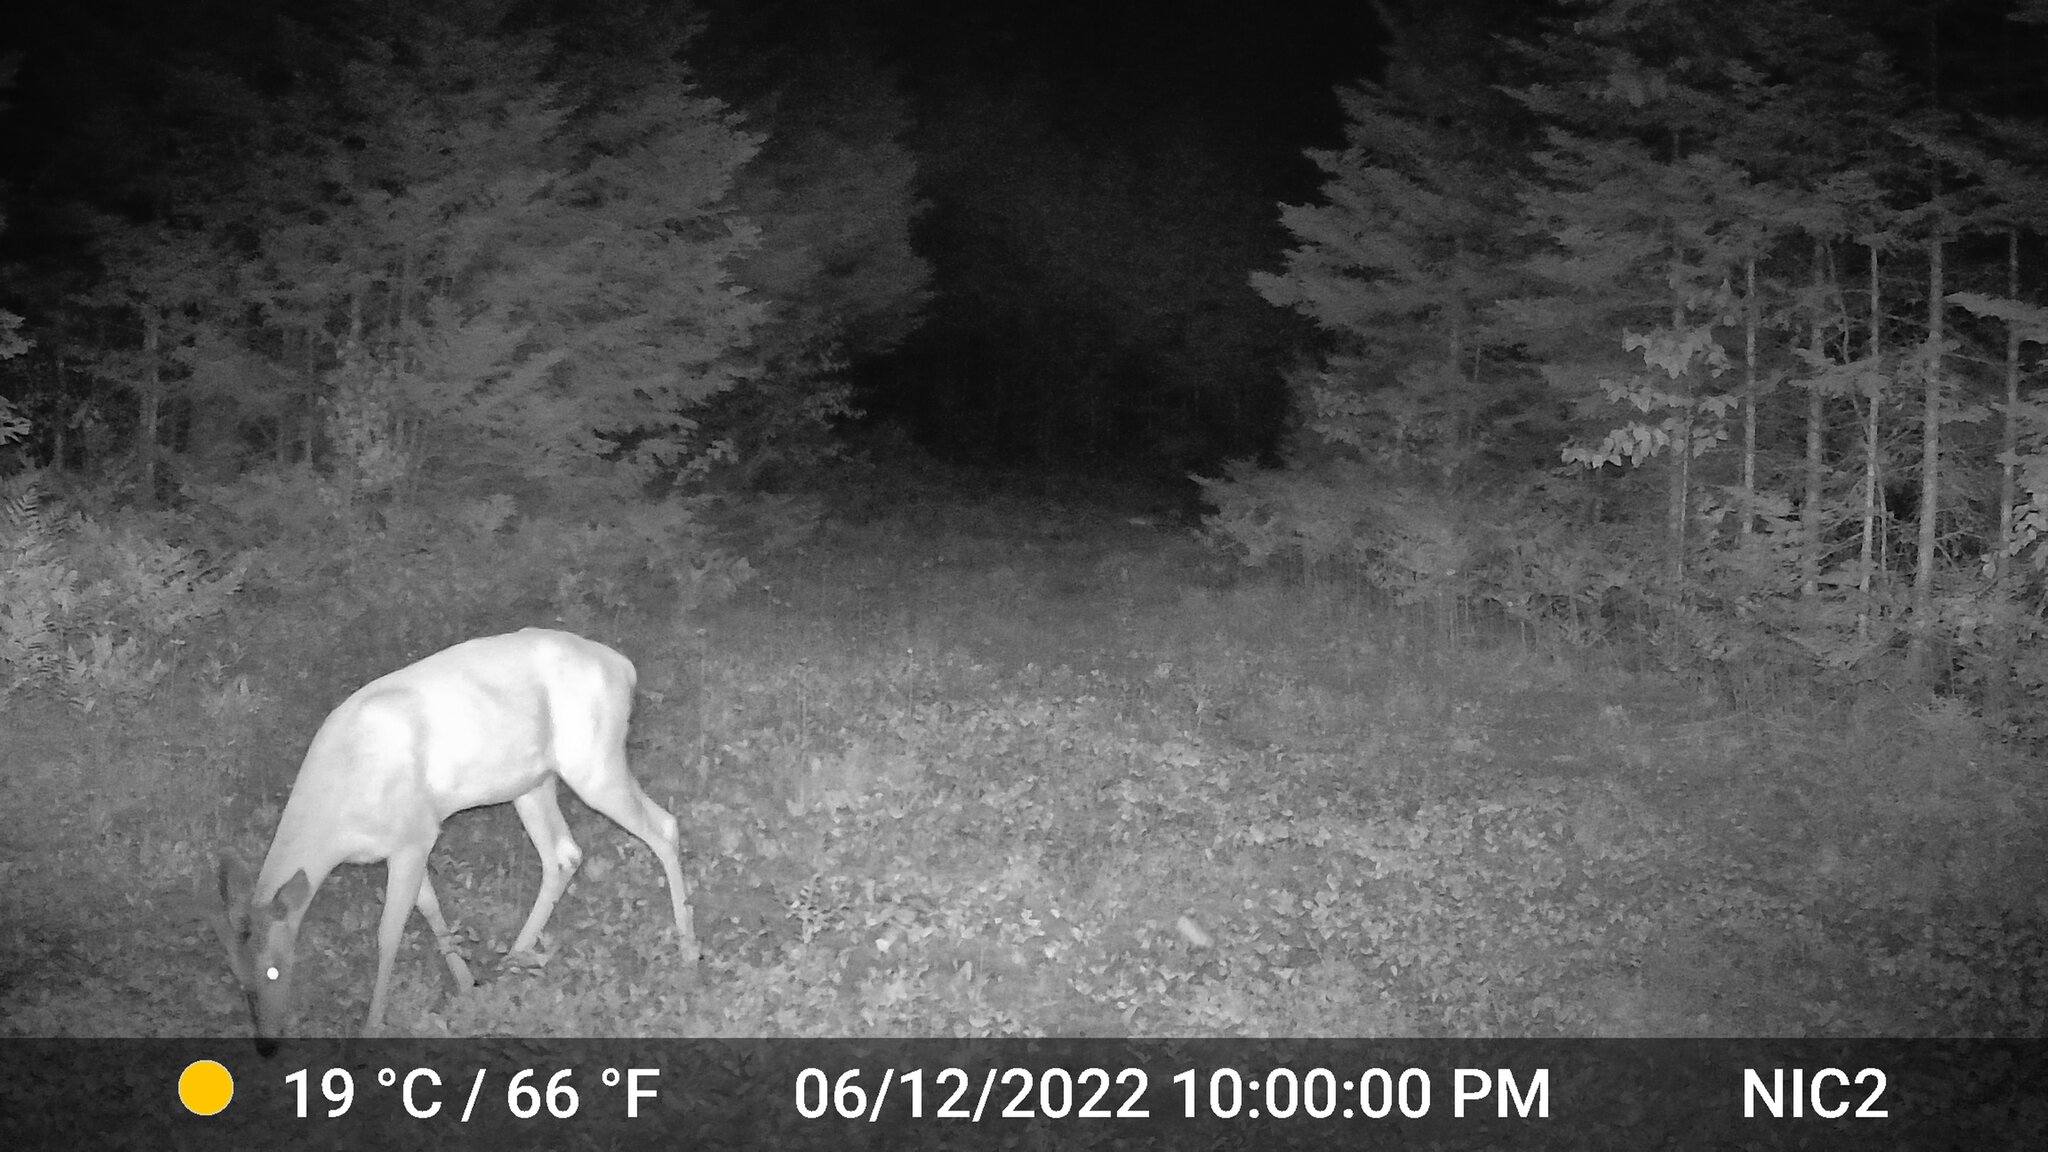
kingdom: Animalia
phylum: Chordata
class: Mammalia
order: Artiodactyla
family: Cervidae
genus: Odocoileus
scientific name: Odocoileus virginianus
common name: White-tailed deer
